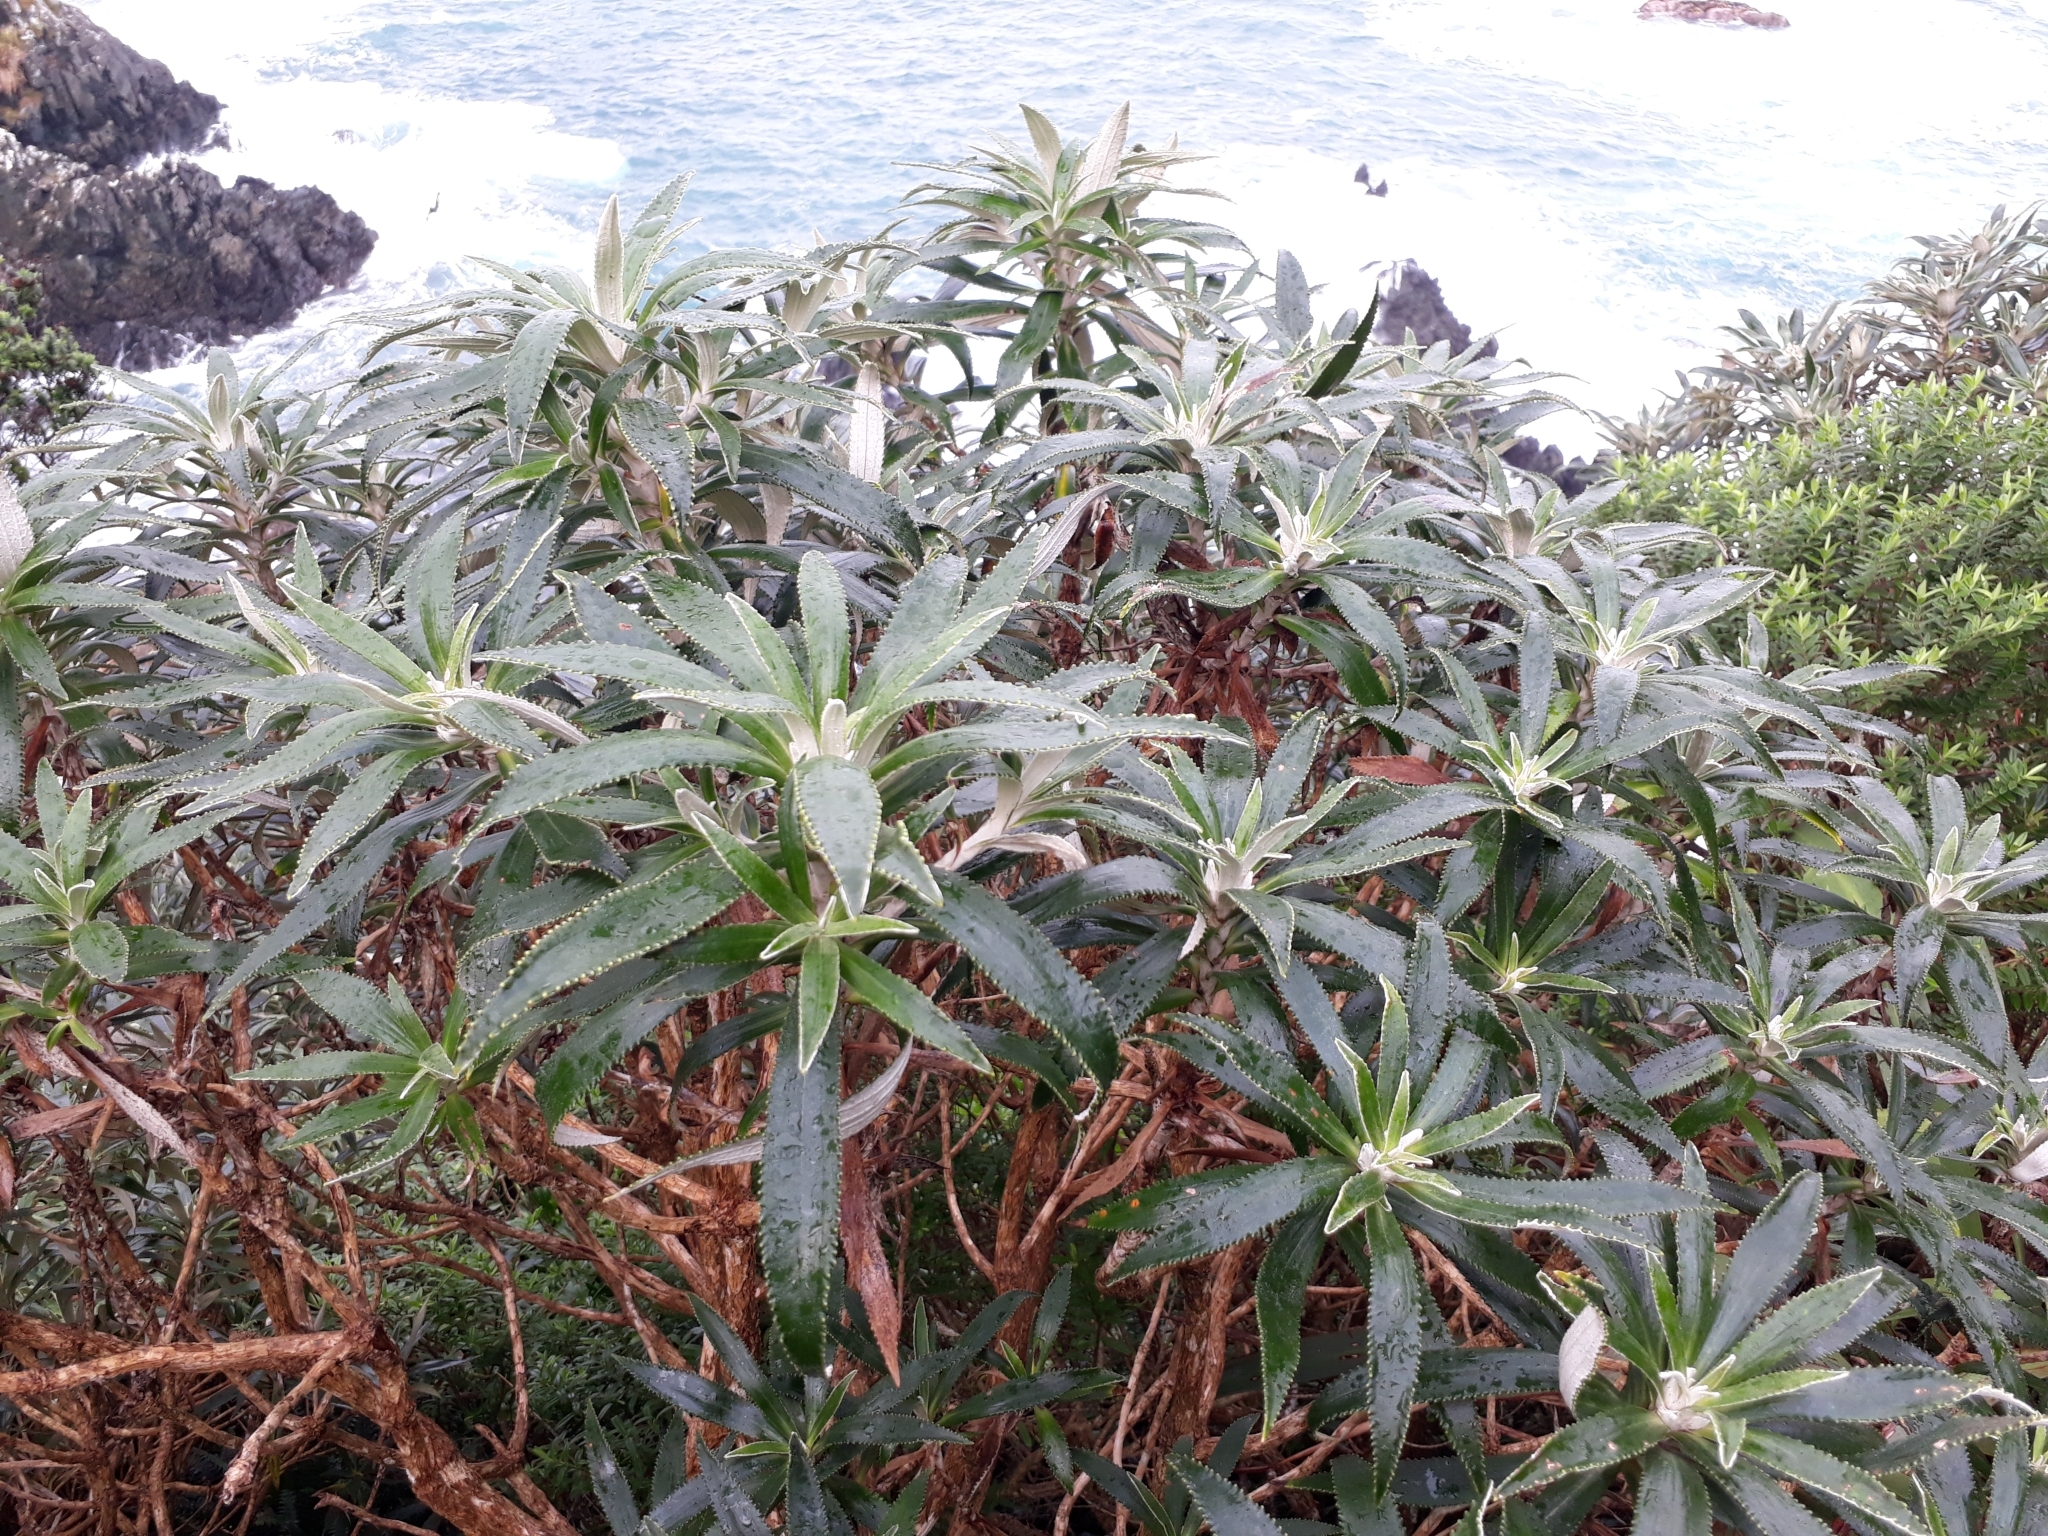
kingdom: Plantae
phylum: Tracheophyta
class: Magnoliopsida
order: Asterales
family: Asteraceae
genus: Macrolearia
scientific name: Macrolearia angustifolia
